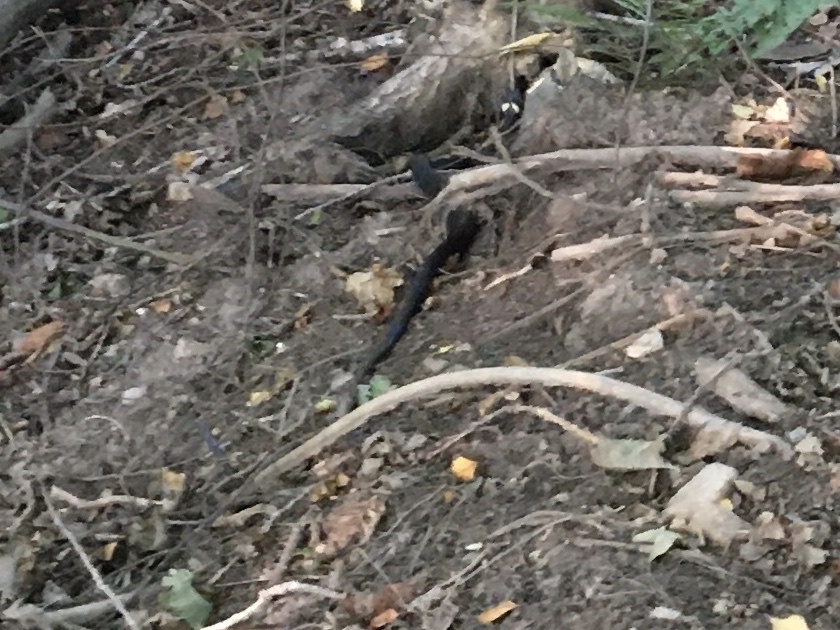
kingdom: Animalia
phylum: Chordata
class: Squamata
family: Colubridae
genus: Natrix
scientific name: Natrix natrix
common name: Grass snake
